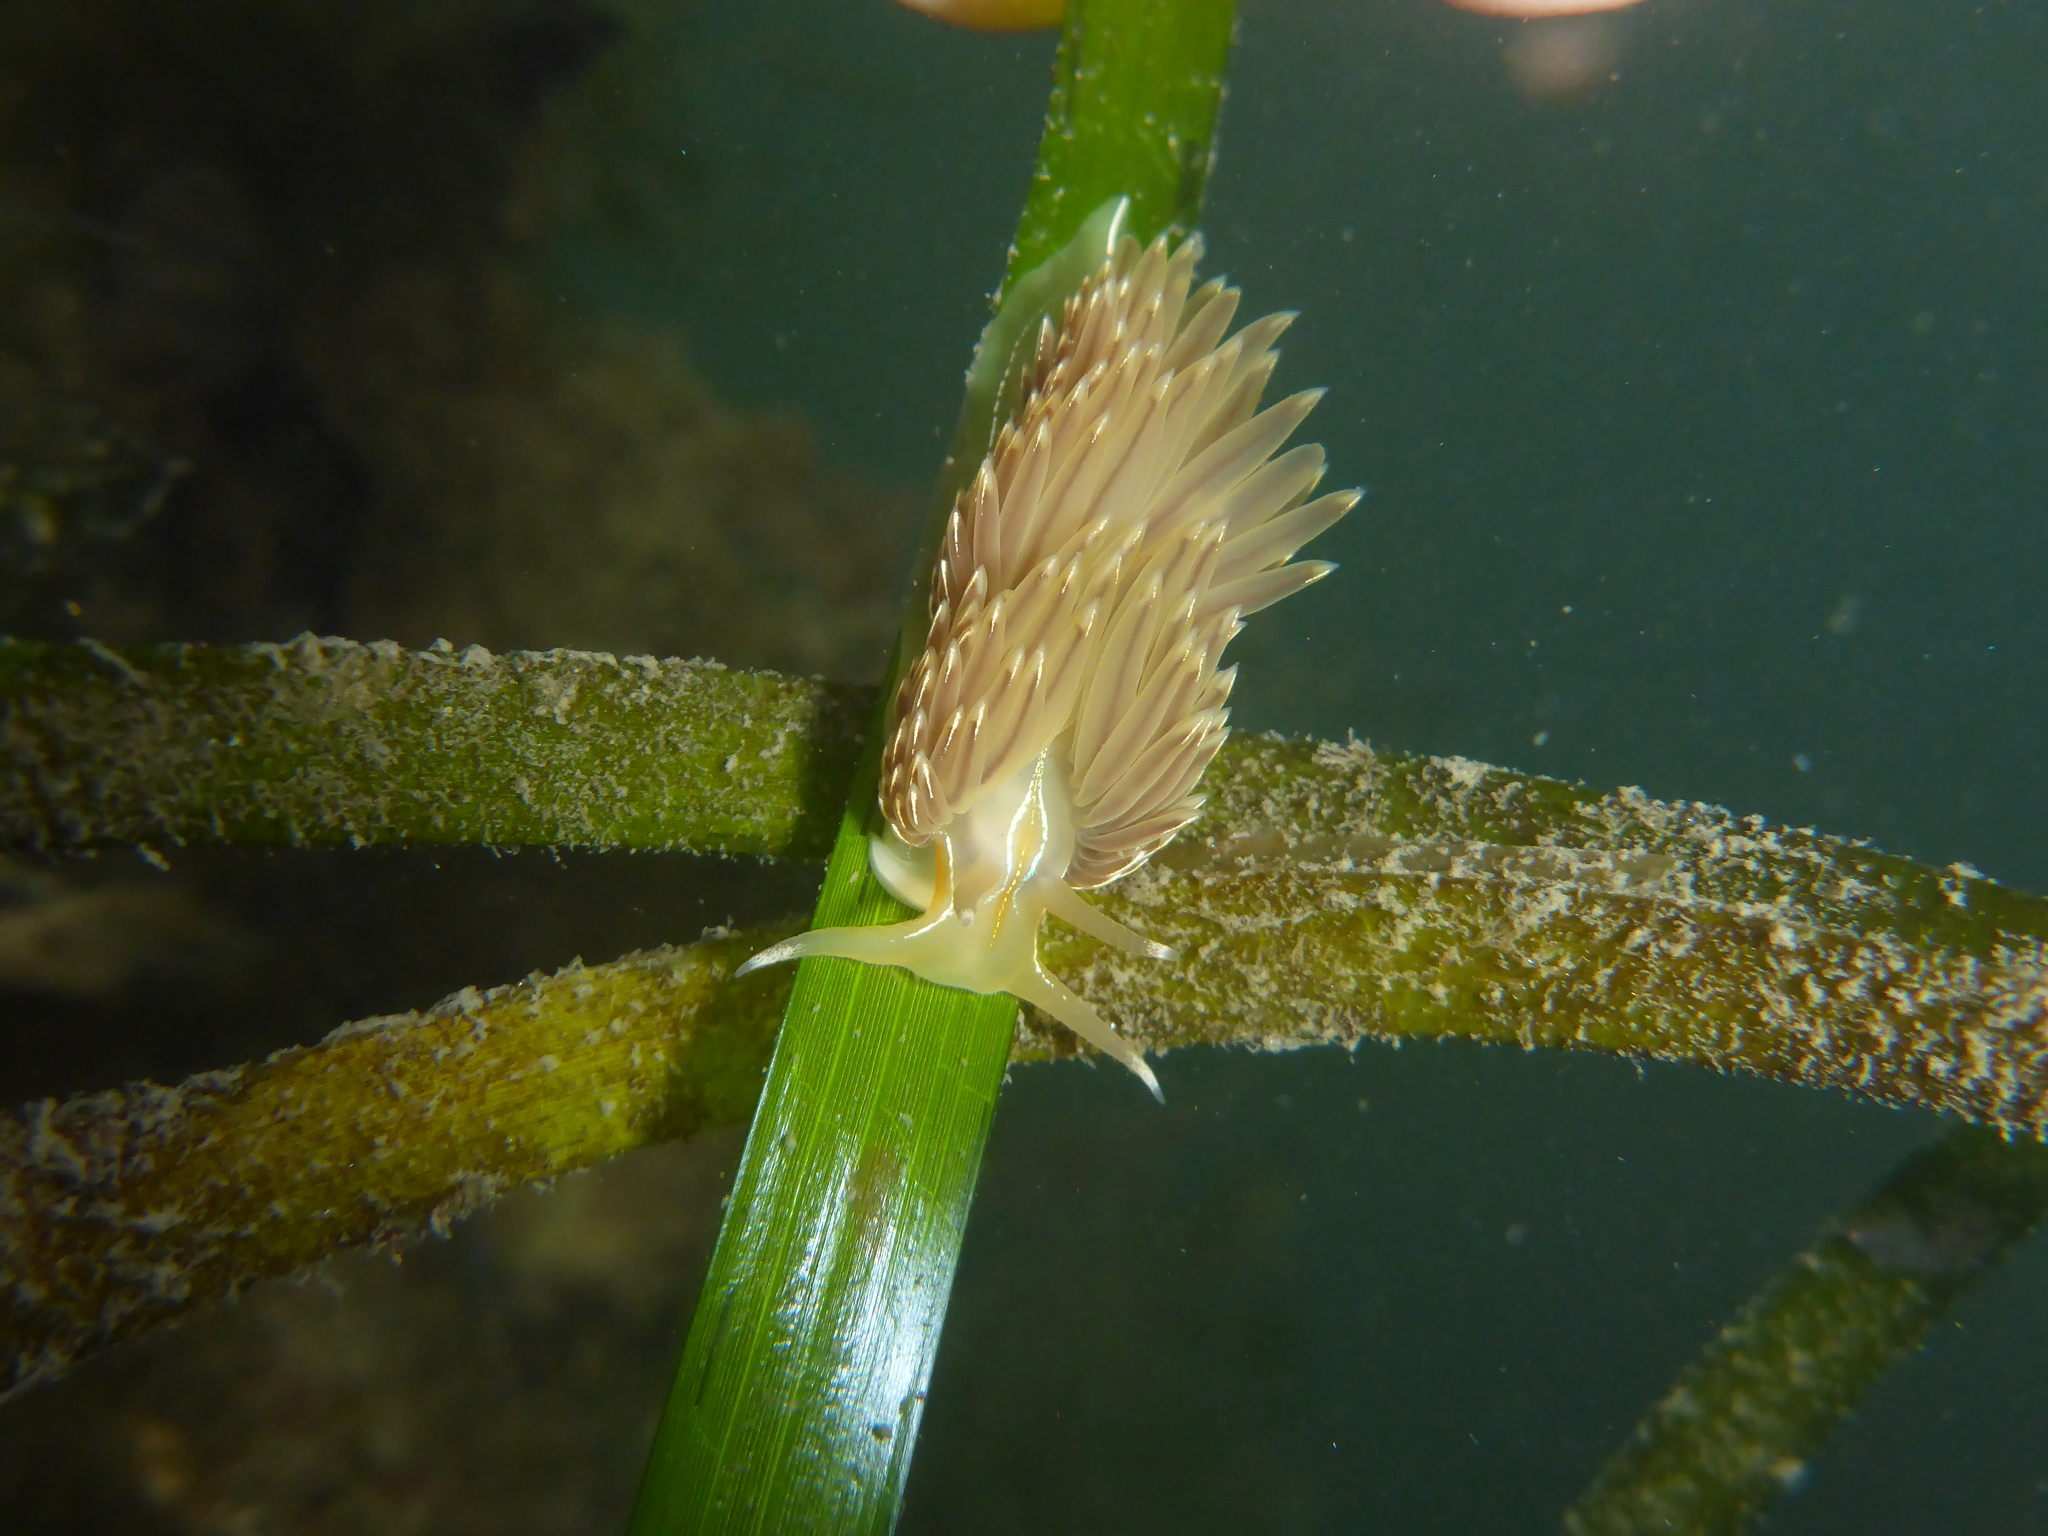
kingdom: Animalia
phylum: Mollusca
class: Gastropoda
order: Nudibranchia
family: Myrrhinidae
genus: Hermissenda
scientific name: Hermissenda crassicornis
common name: Hermissenda
